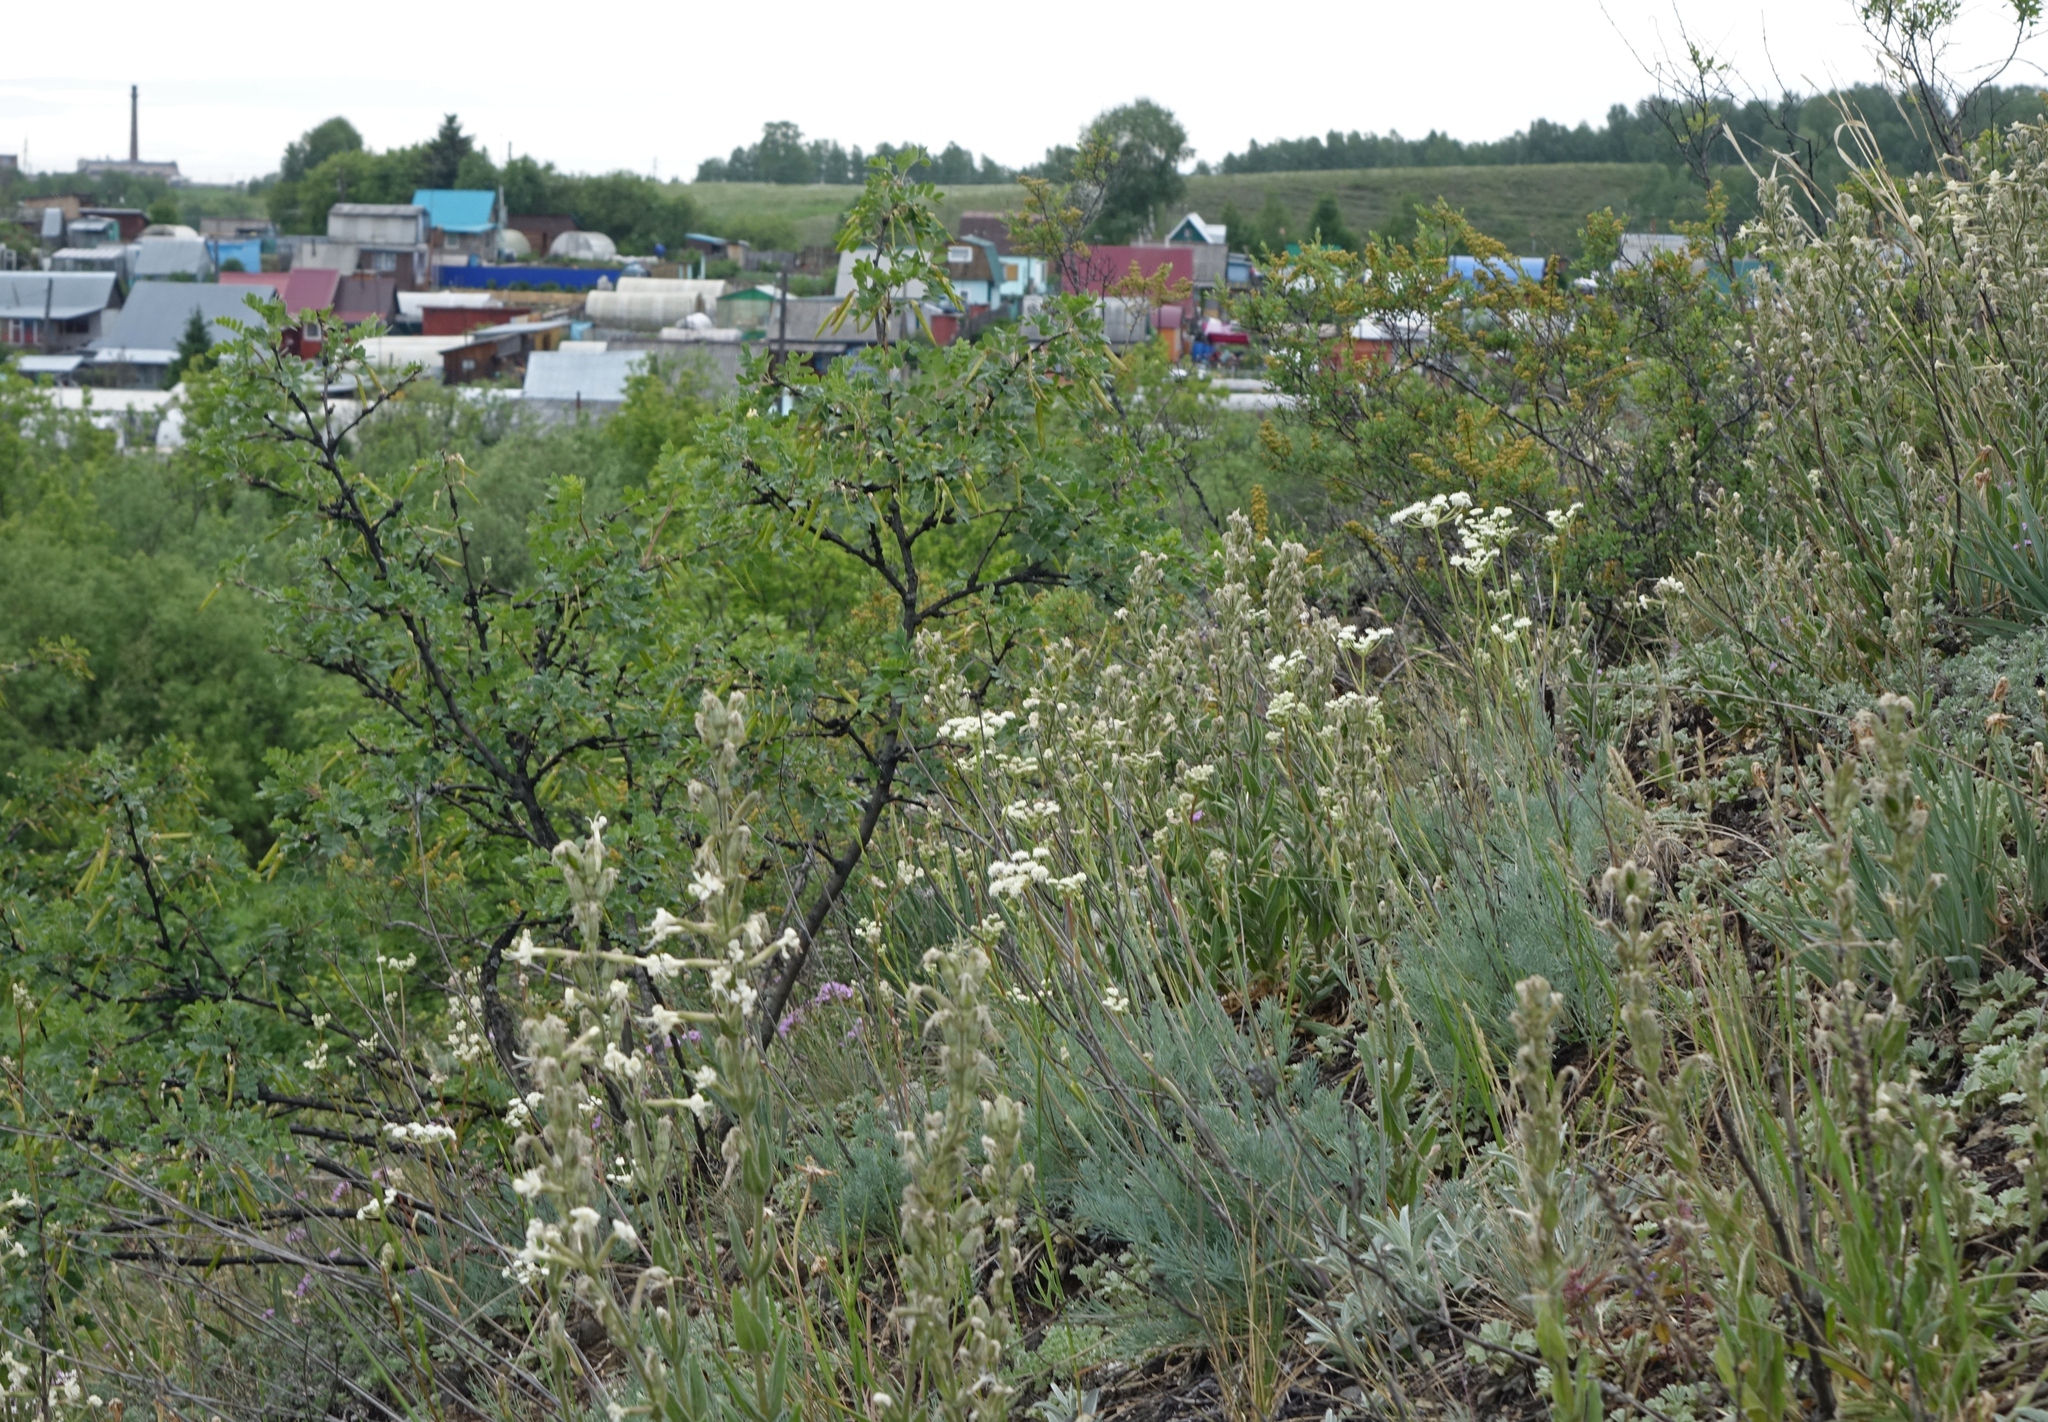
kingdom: Plantae
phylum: Tracheophyta
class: Magnoliopsida
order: Caryophyllales
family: Caryophyllaceae
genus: Silene
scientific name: Silene viscosa
